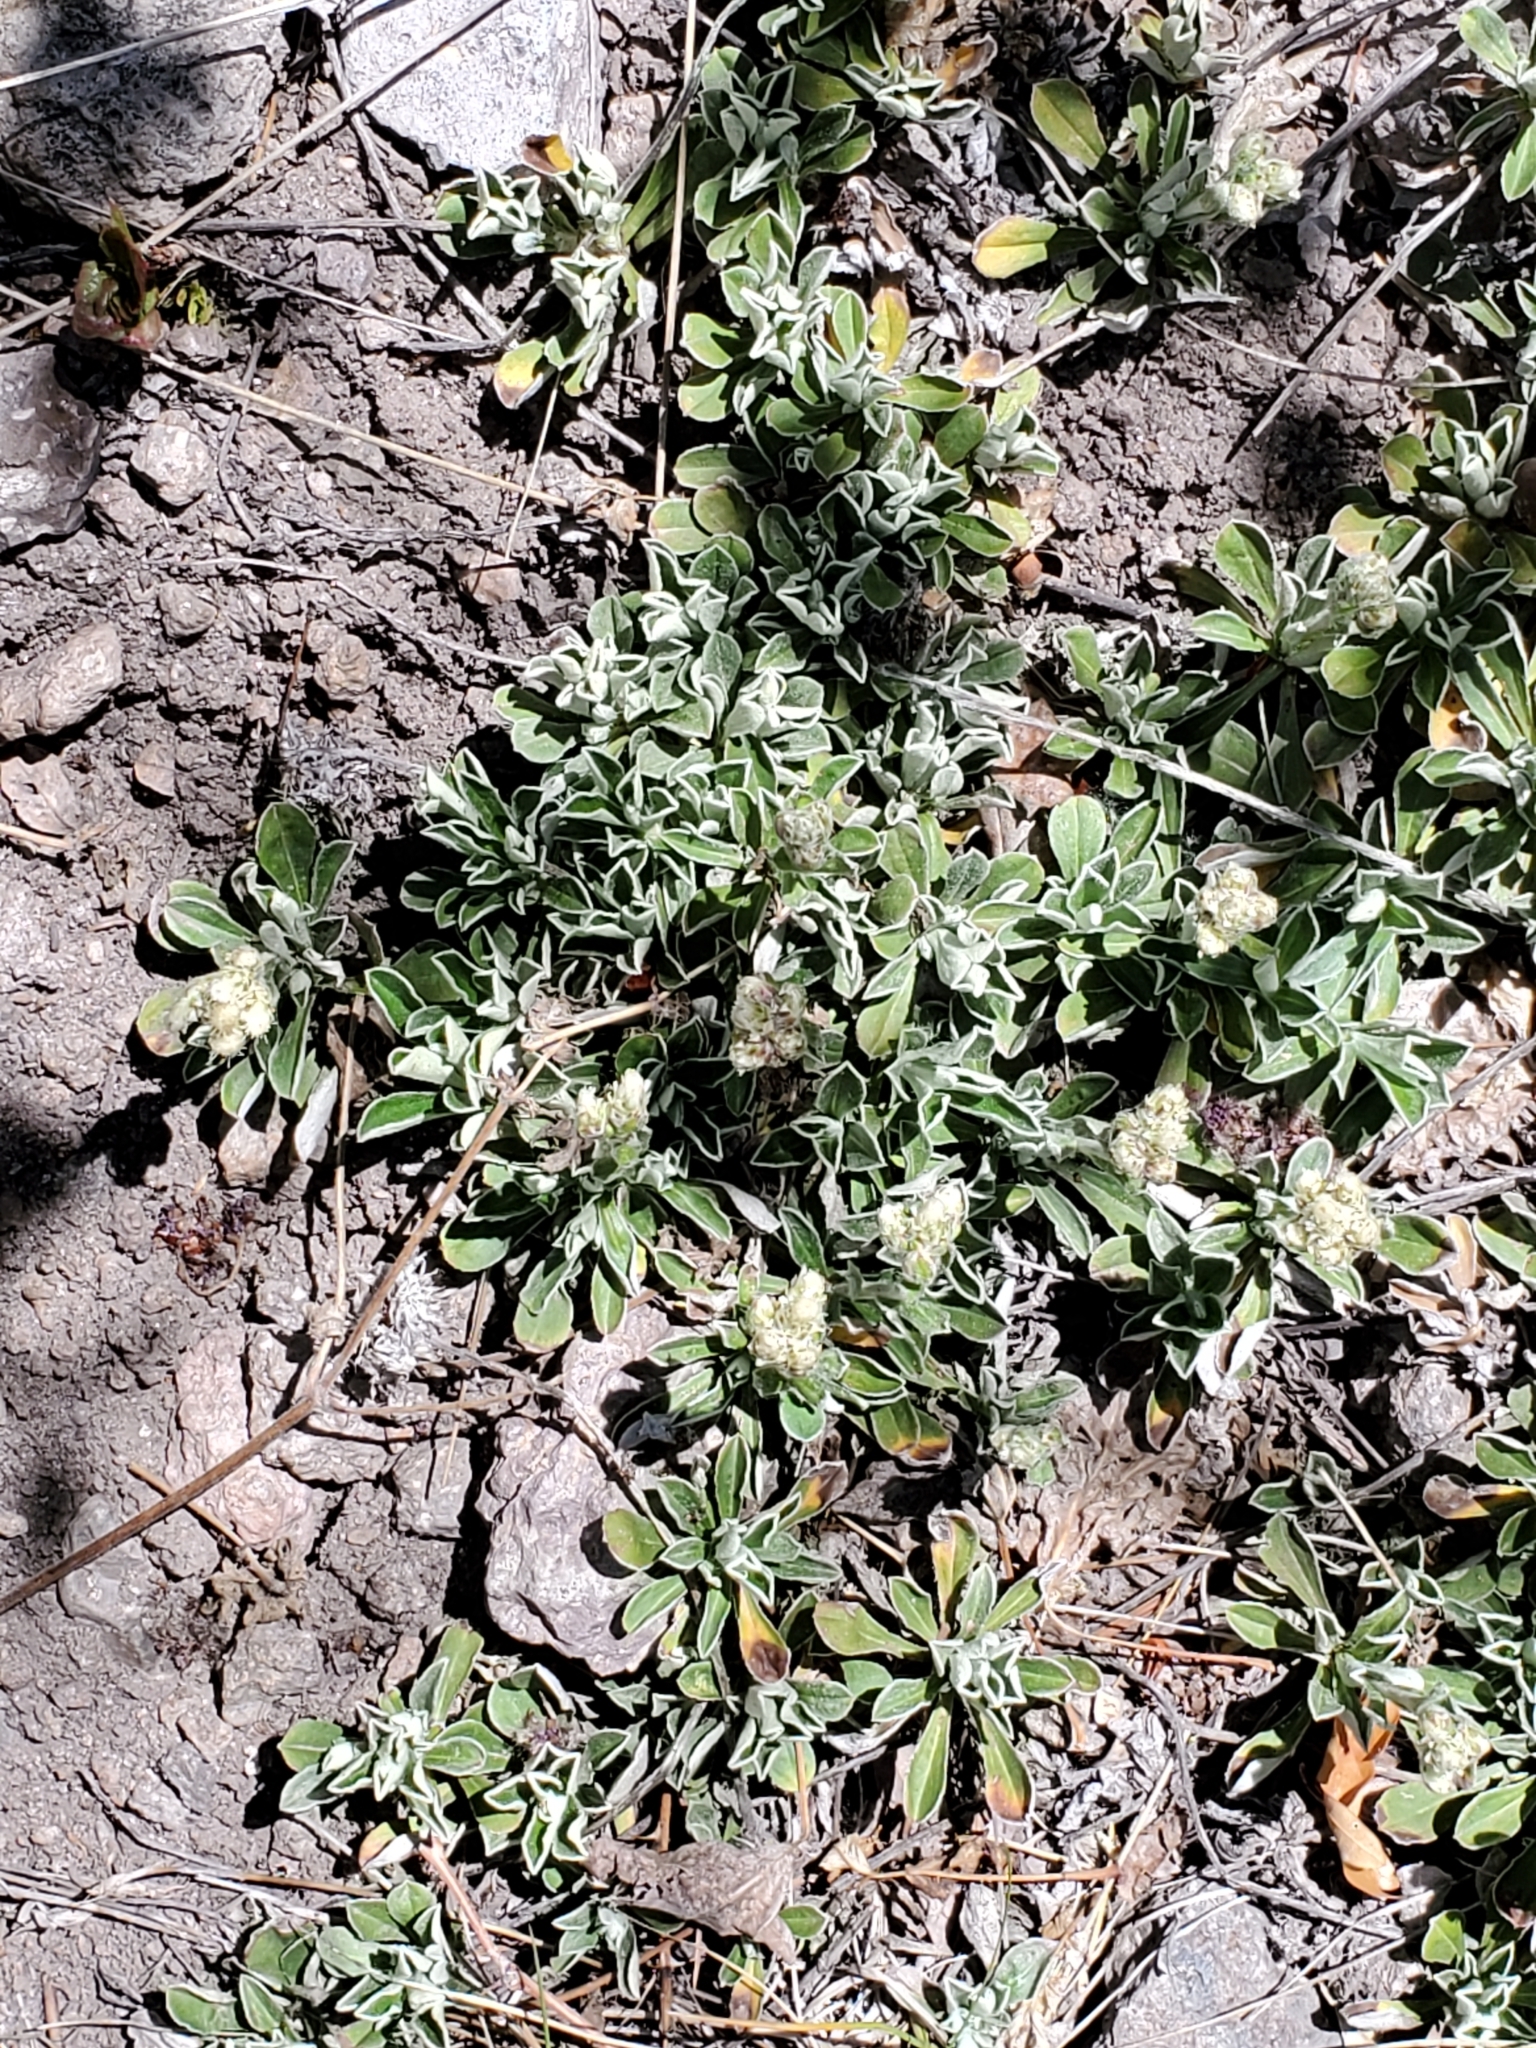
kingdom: Plantae
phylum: Tracheophyta
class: Magnoliopsida
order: Asterales
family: Asteraceae
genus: Antennaria
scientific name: Antennaria marginata
